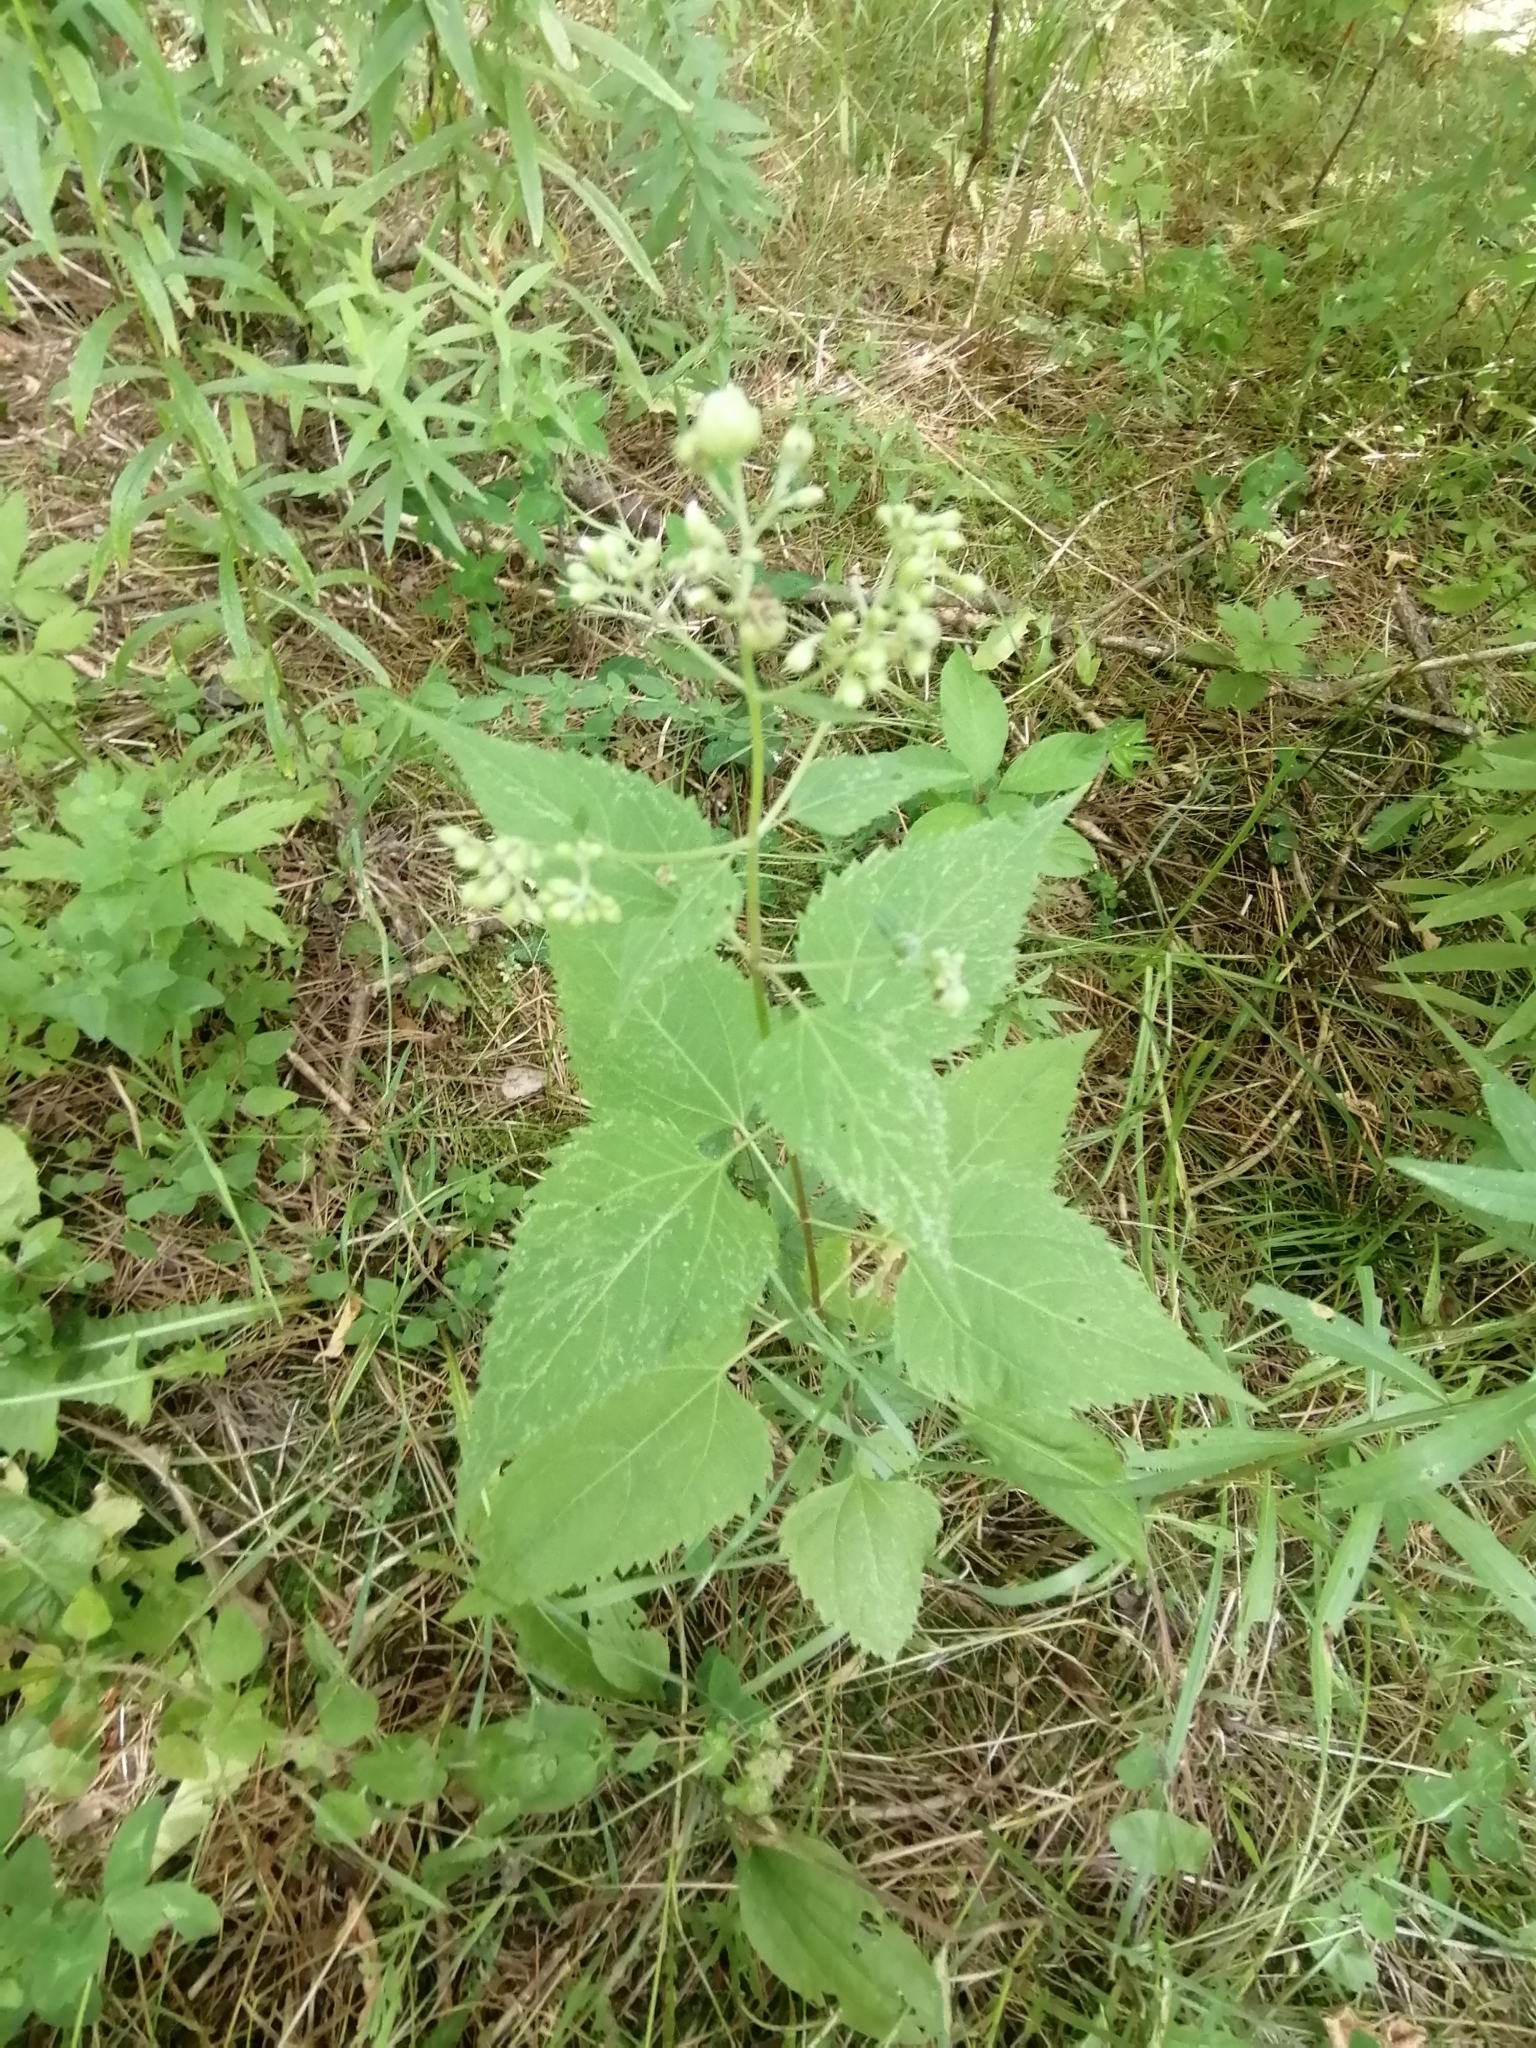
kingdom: Plantae
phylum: Tracheophyta
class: Magnoliopsida
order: Asterales
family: Asteraceae
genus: Ageratina
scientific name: Ageratina altissima
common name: White snakeroot
